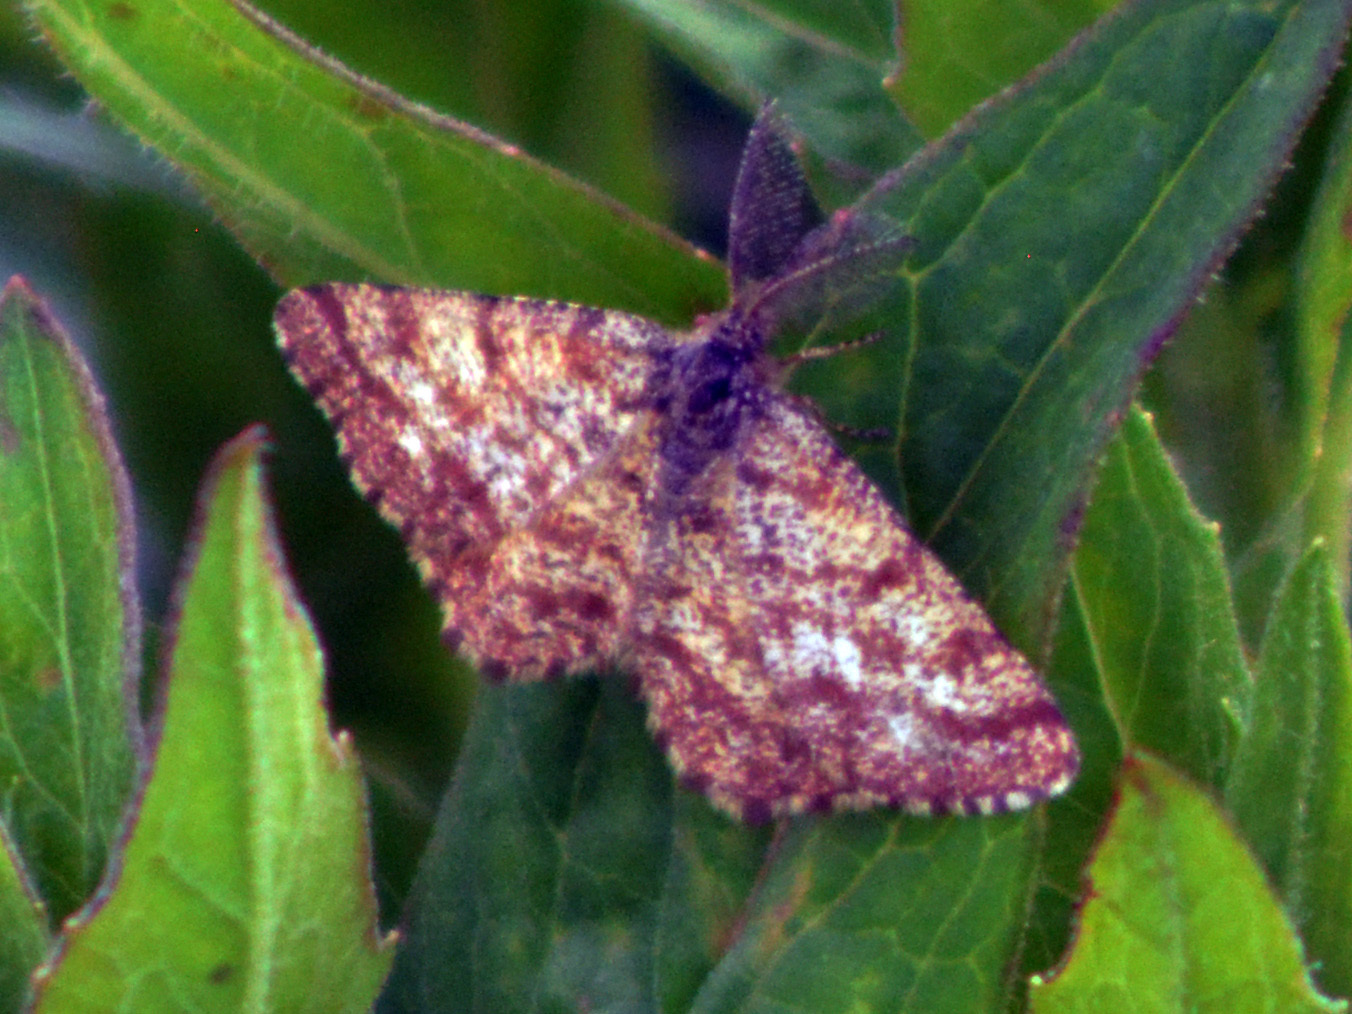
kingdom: Animalia
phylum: Arthropoda
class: Insecta
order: Lepidoptera
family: Geometridae
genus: Ematurga
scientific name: Ematurga atomaria
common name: Common heath
